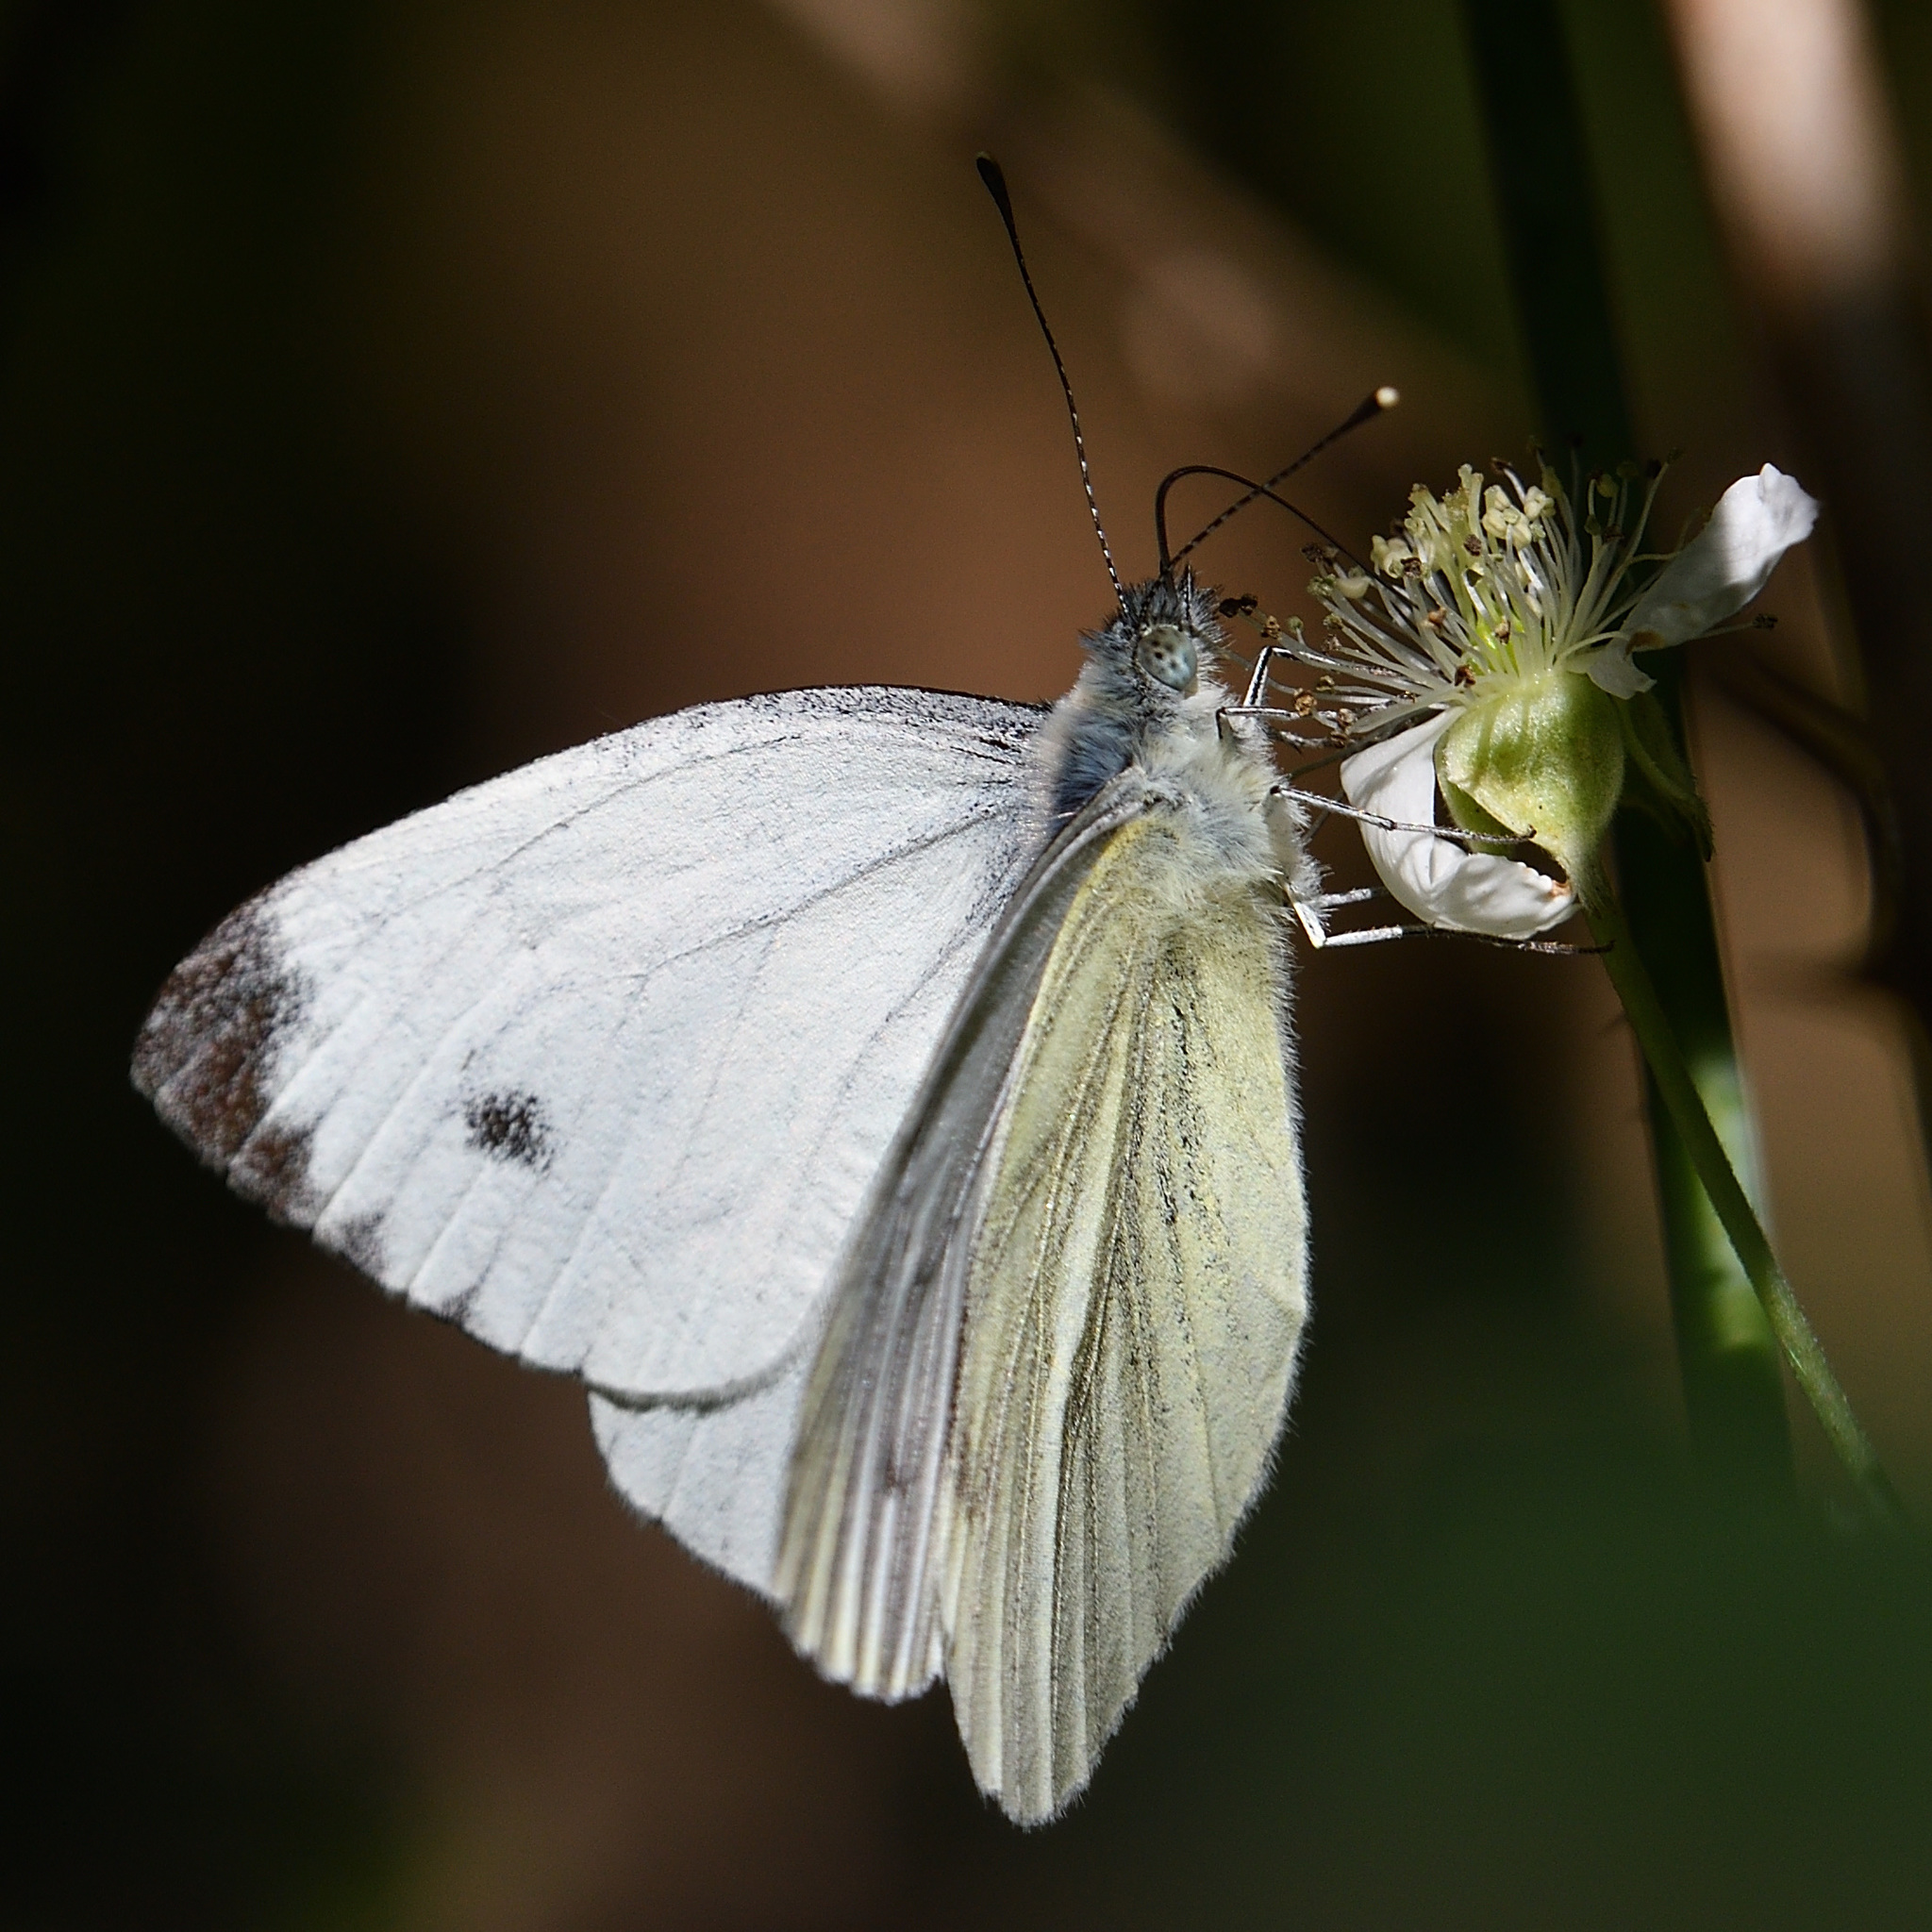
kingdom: Animalia
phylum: Arthropoda
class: Insecta
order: Lepidoptera
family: Pieridae
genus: Pieris
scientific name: Pieris napi
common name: Green-veined white
